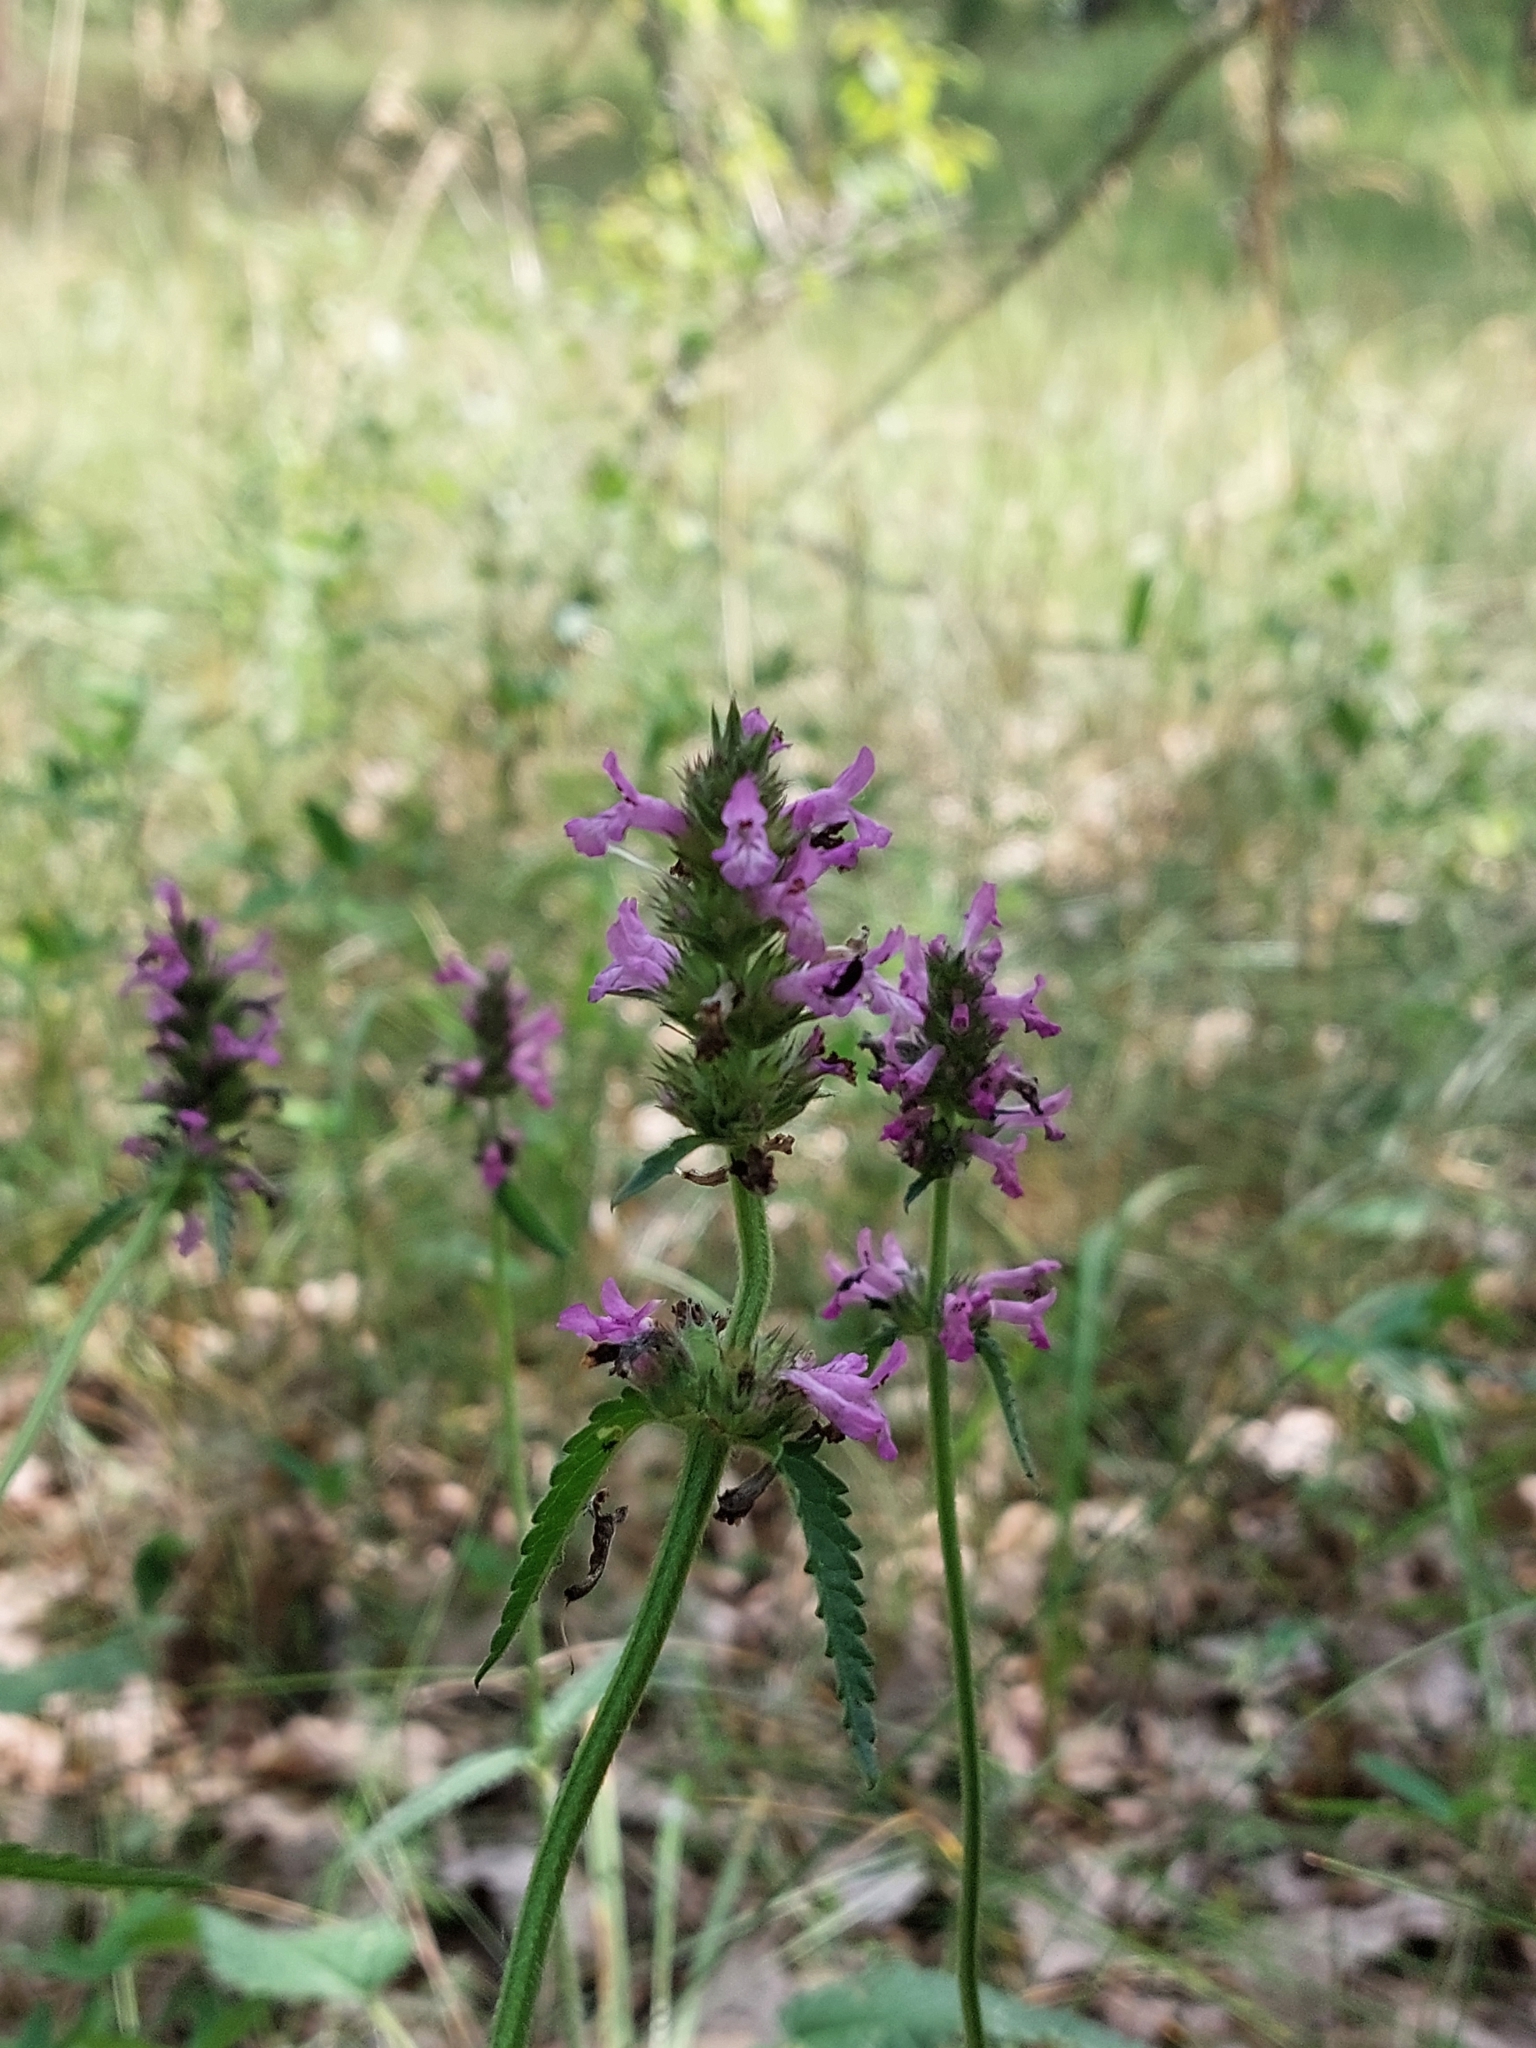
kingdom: Plantae
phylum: Tracheophyta
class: Magnoliopsida
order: Lamiales
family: Lamiaceae
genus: Betonica
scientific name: Betonica officinalis
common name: Bishop's-wort
